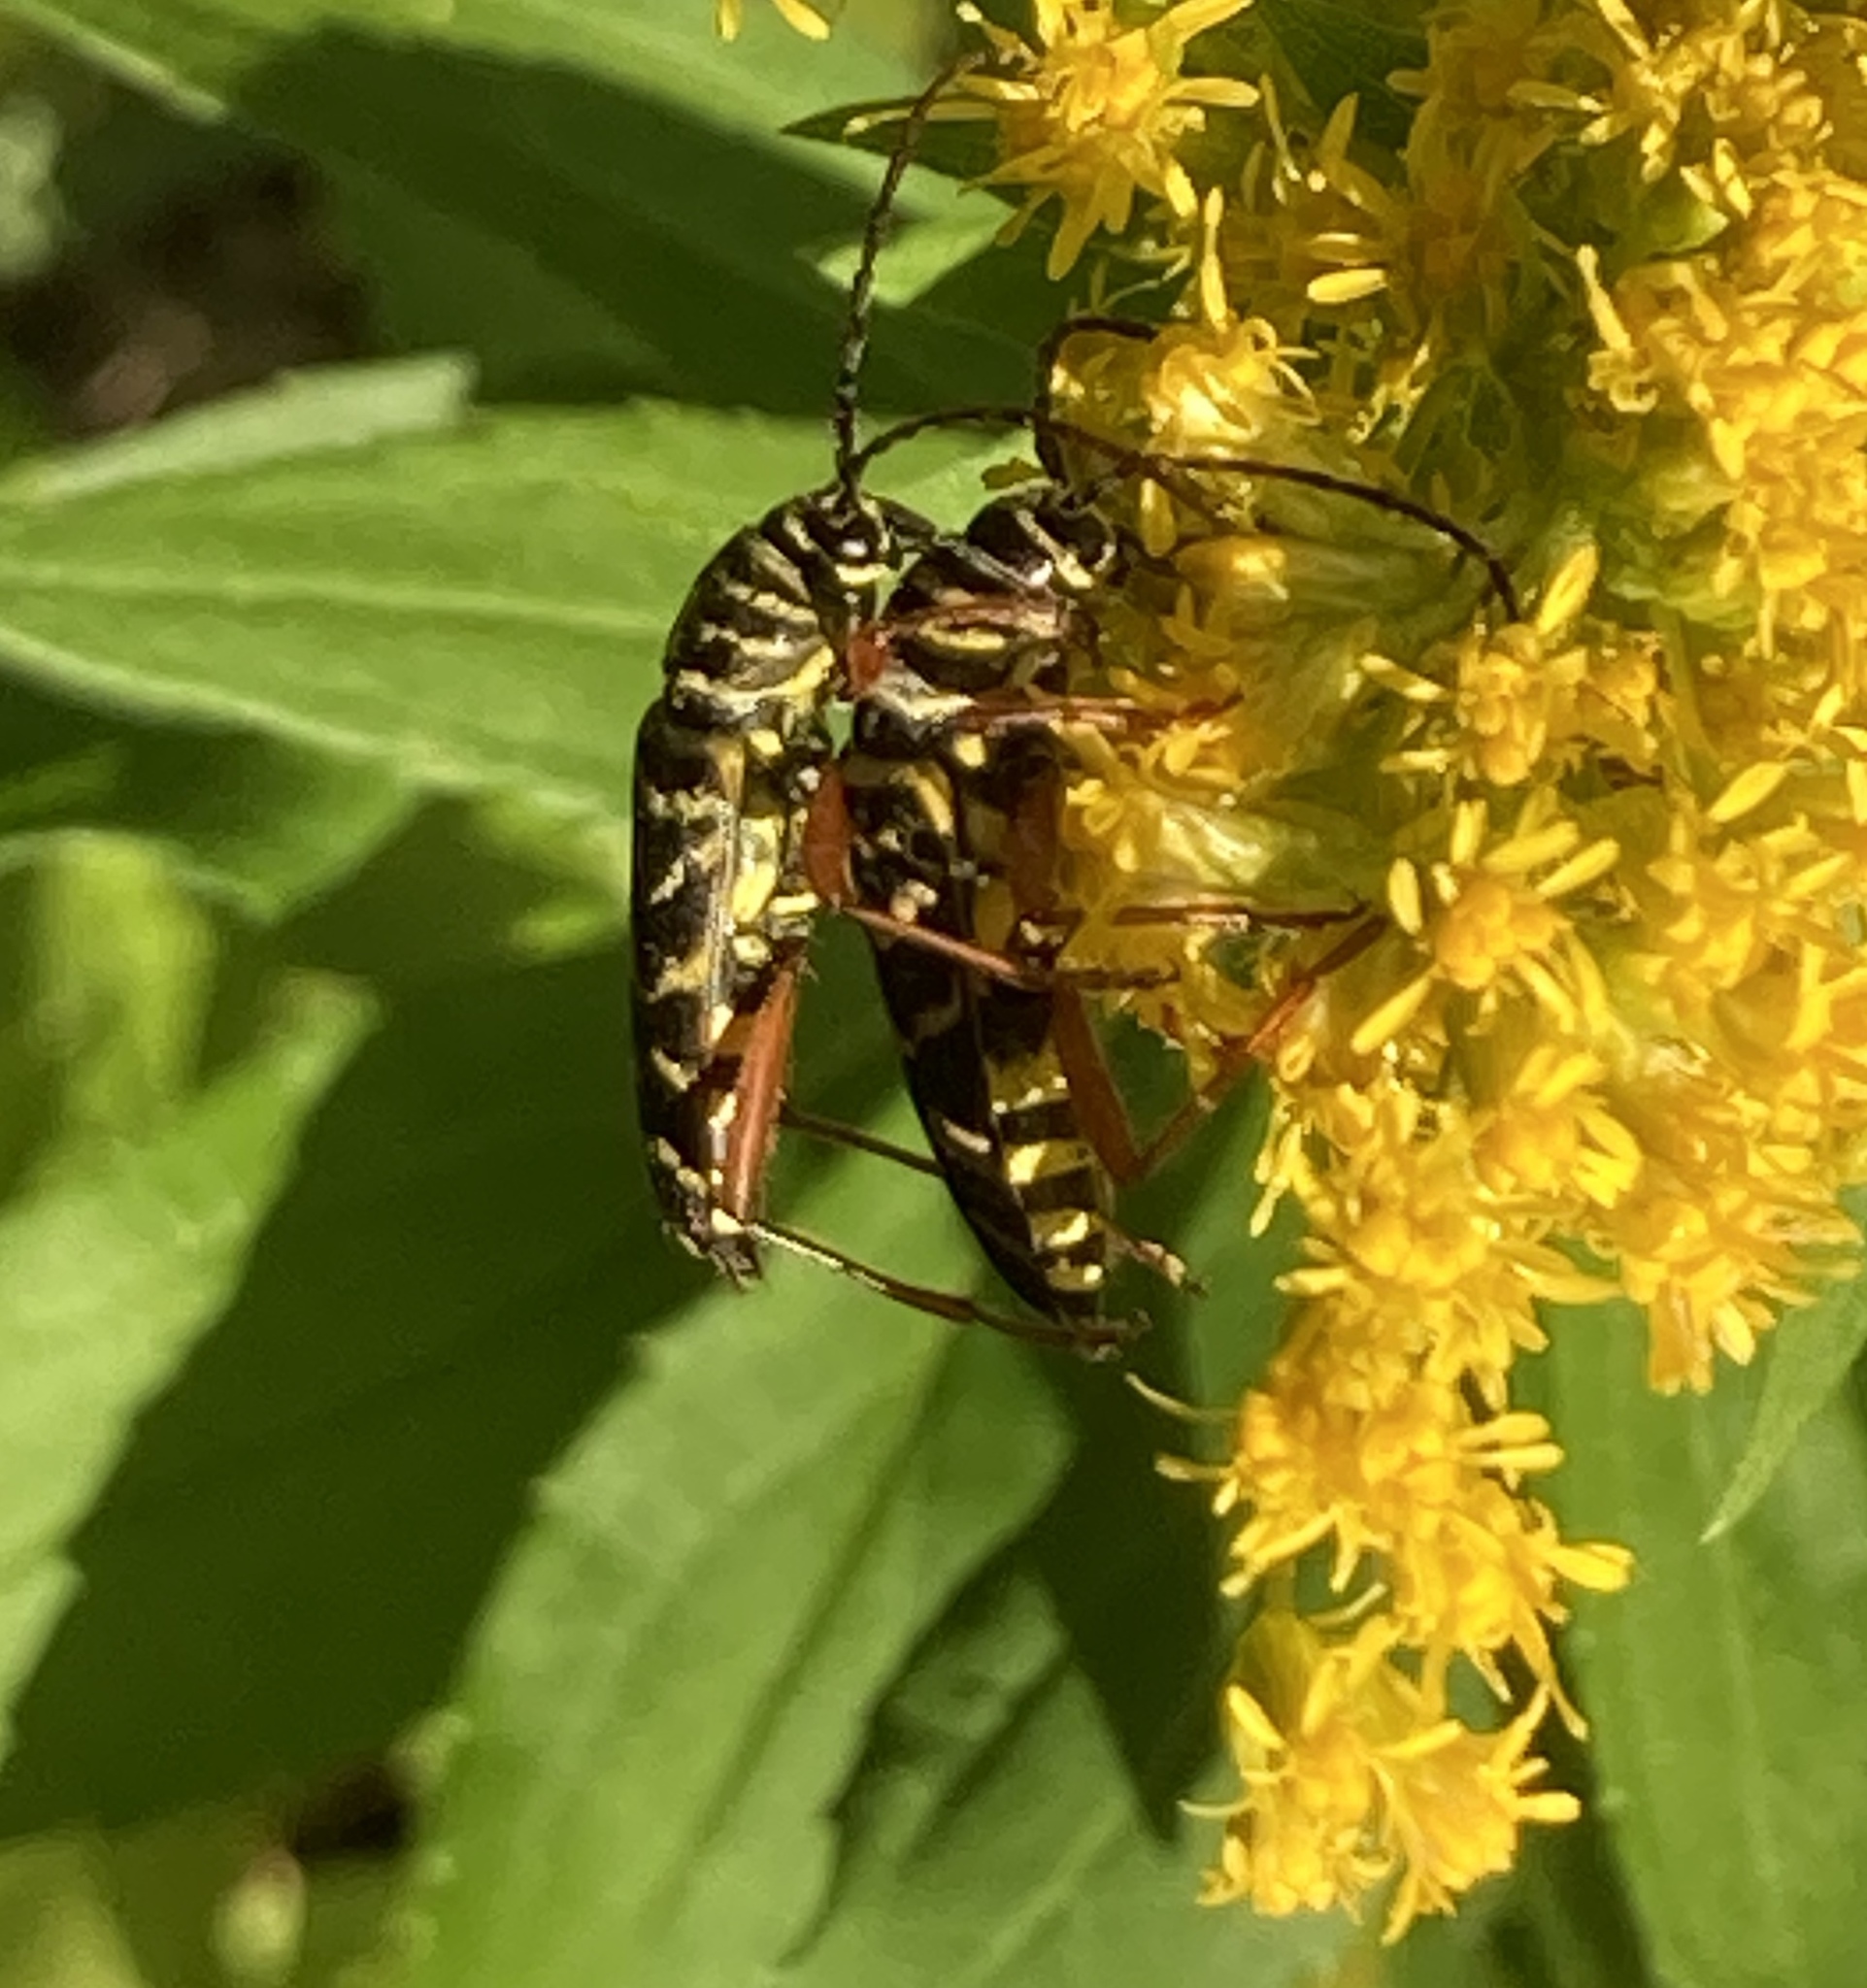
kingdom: Animalia
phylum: Arthropoda
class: Insecta
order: Coleoptera
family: Cerambycidae
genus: Megacyllene
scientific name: Megacyllene robiniae
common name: Locust borer
